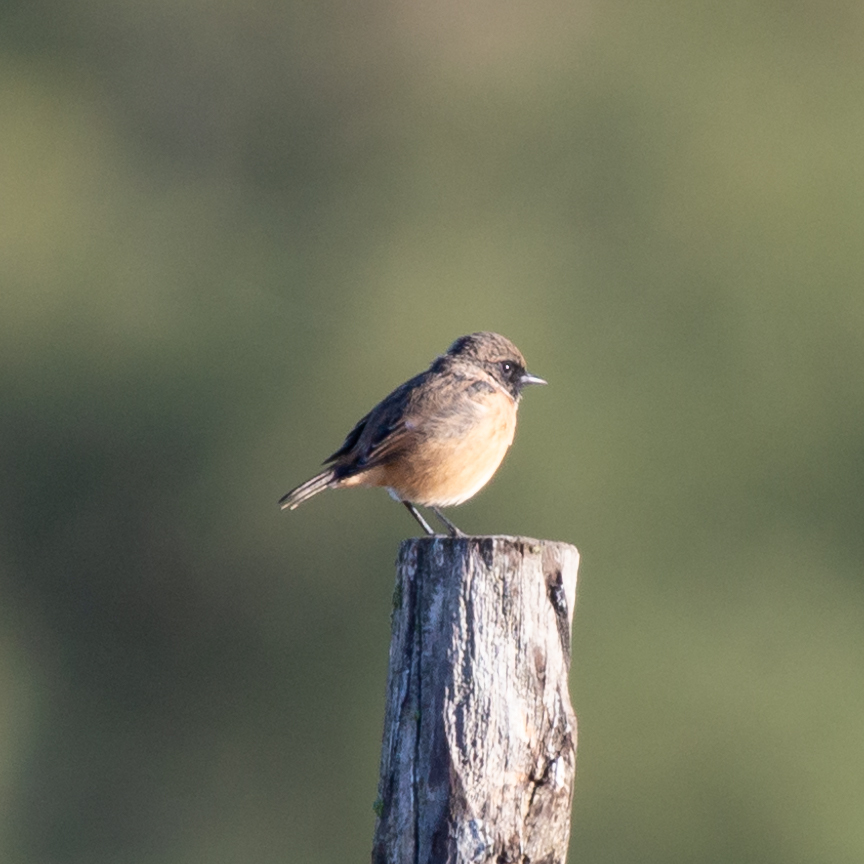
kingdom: Animalia
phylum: Chordata
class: Aves
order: Passeriformes
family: Muscicapidae
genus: Saxicola
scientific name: Saxicola rubicola
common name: European stonechat
